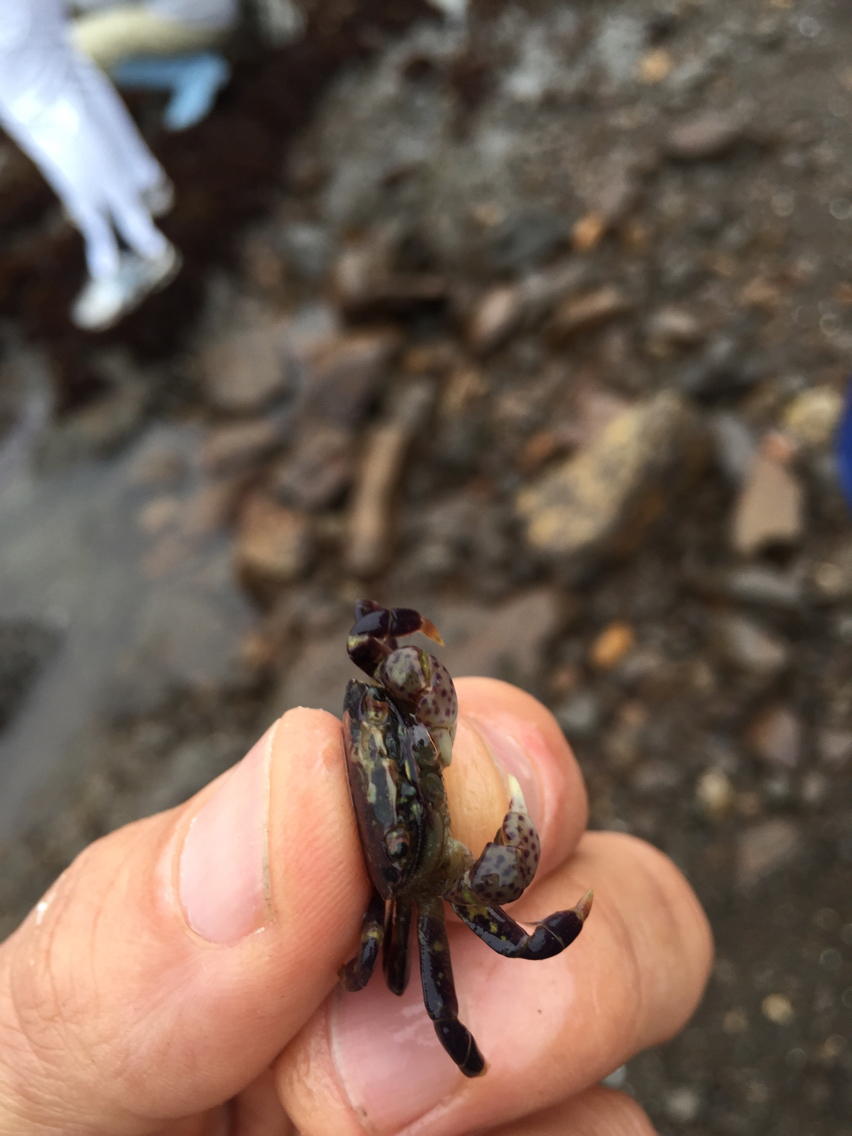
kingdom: Animalia
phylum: Arthropoda
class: Malacostraca
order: Decapoda
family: Varunidae
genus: Hemigrapsus
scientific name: Hemigrapsus nudus
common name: Purple shore crab
